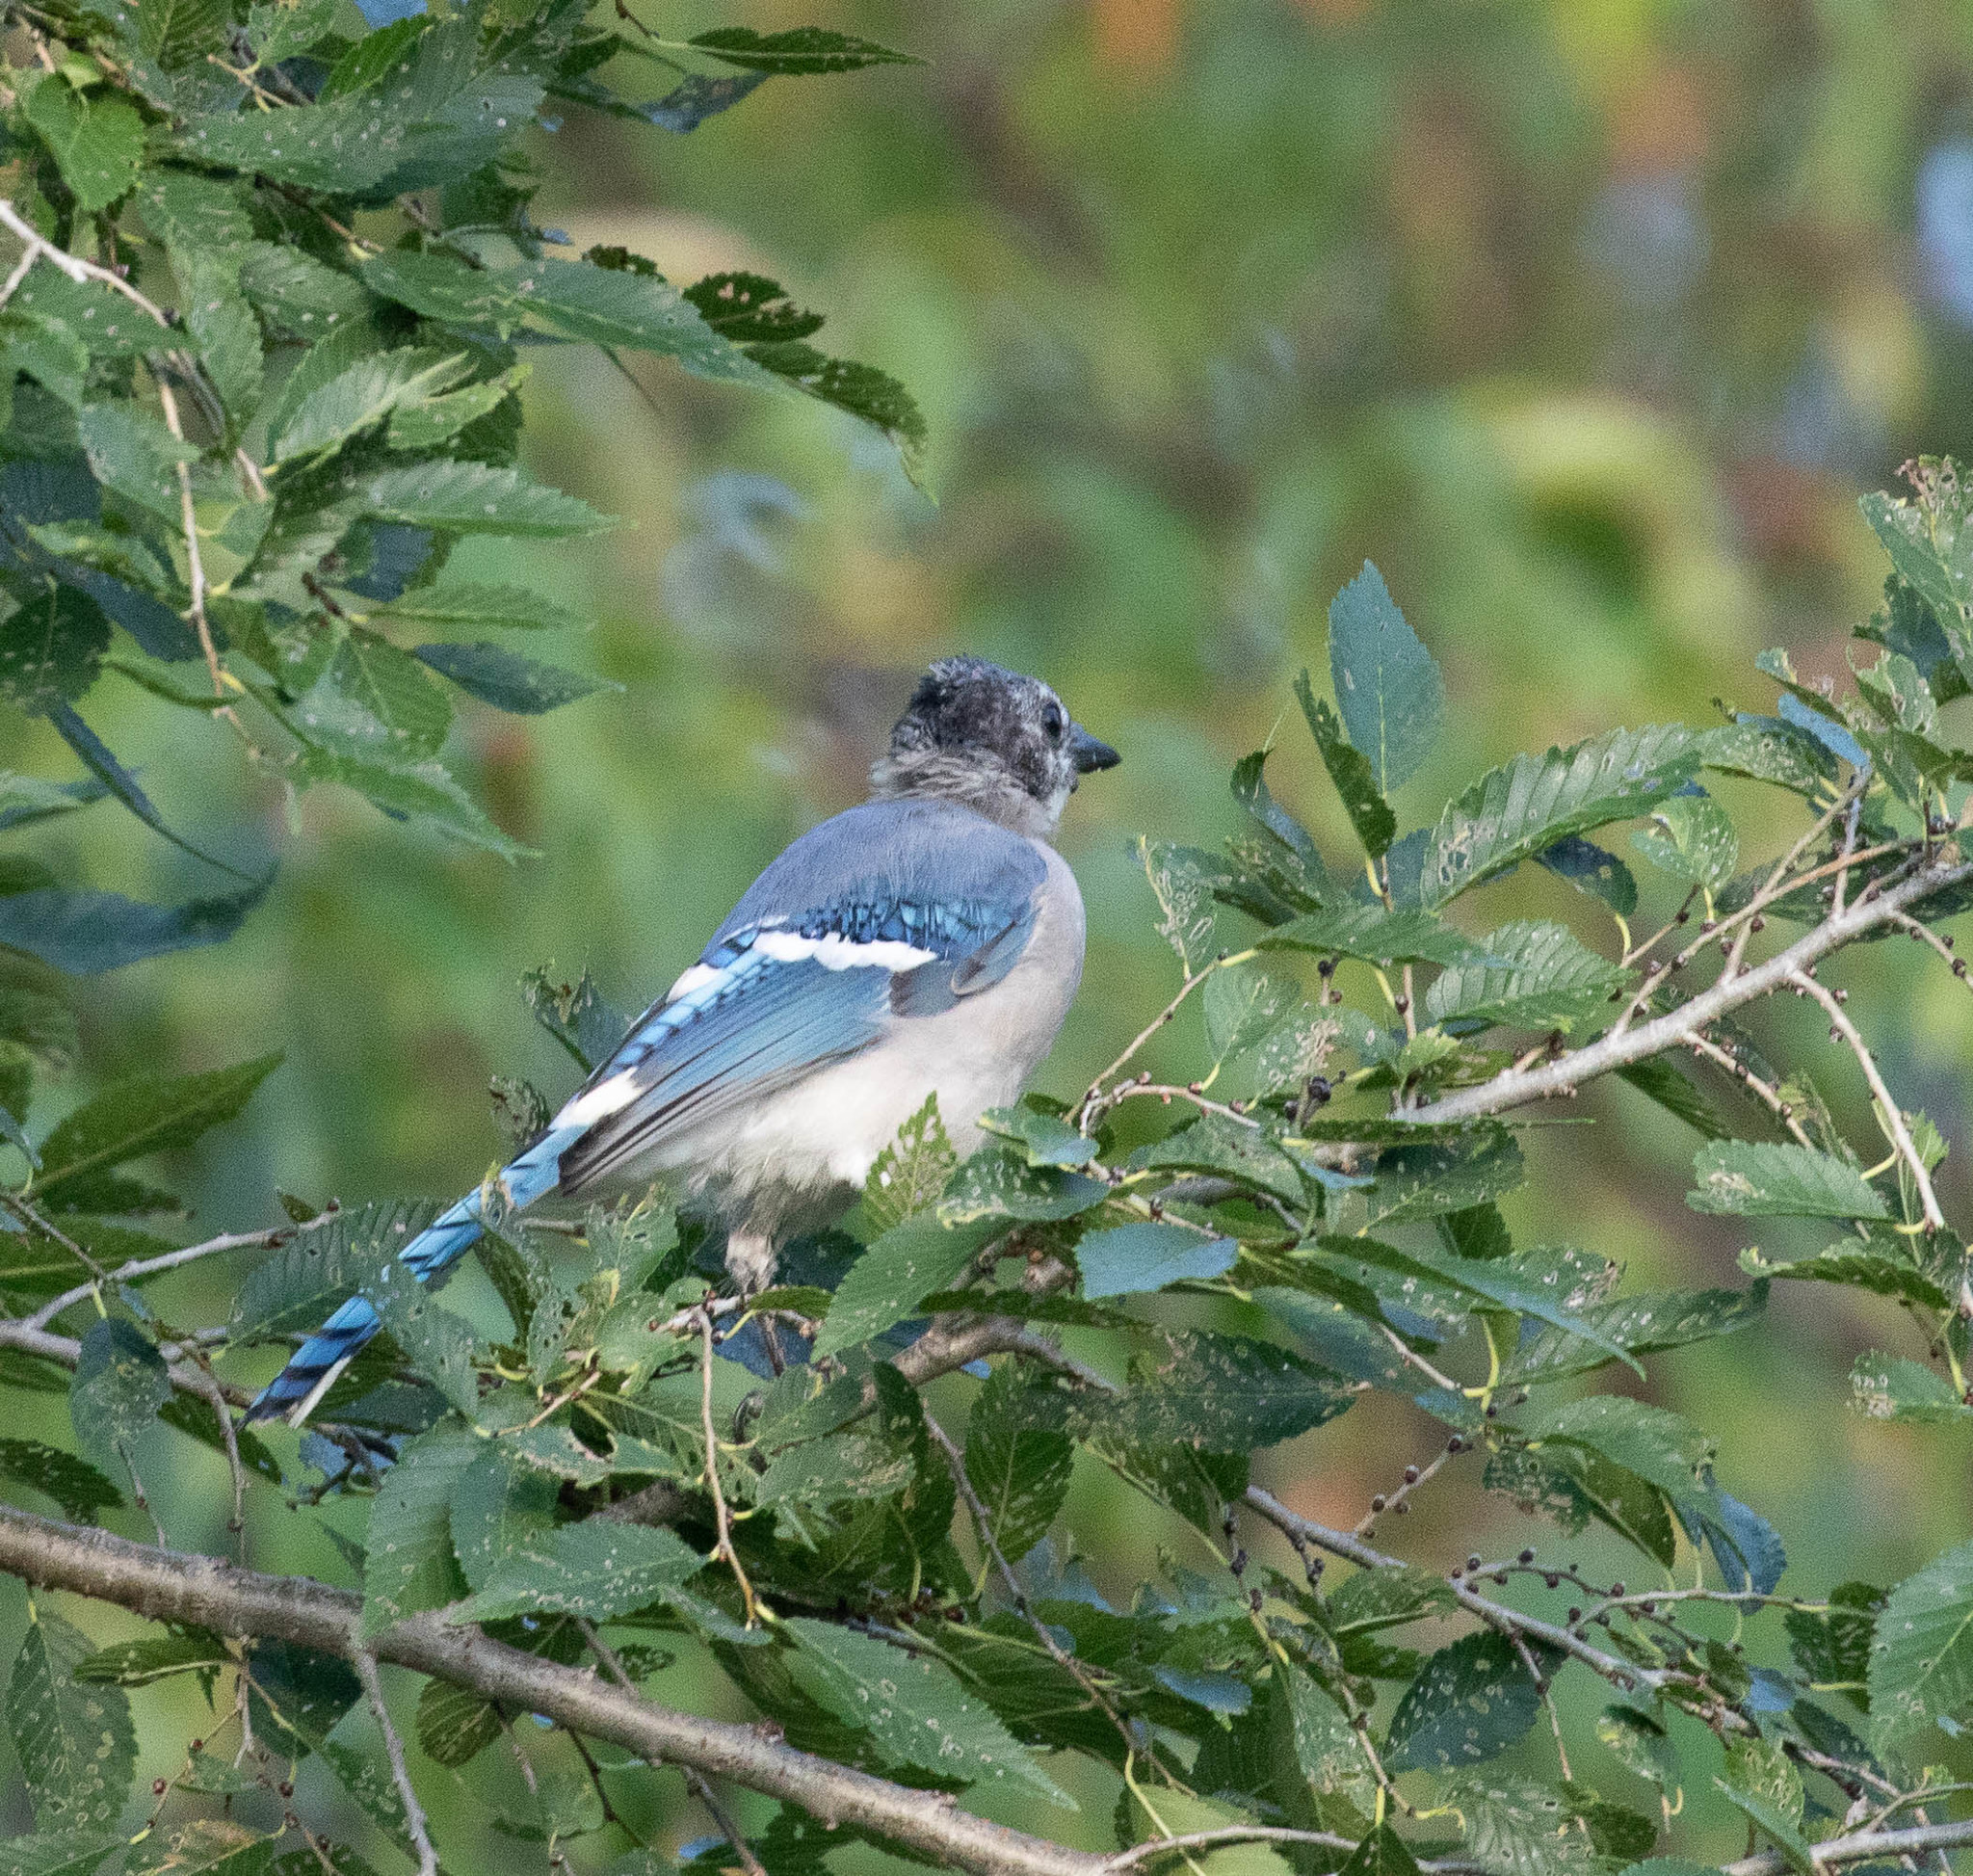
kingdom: Animalia
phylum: Chordata
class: Aves
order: Passeriformes
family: Corvidae
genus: Cyanocitta
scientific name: Cyanocitta cristata
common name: Blue jay
